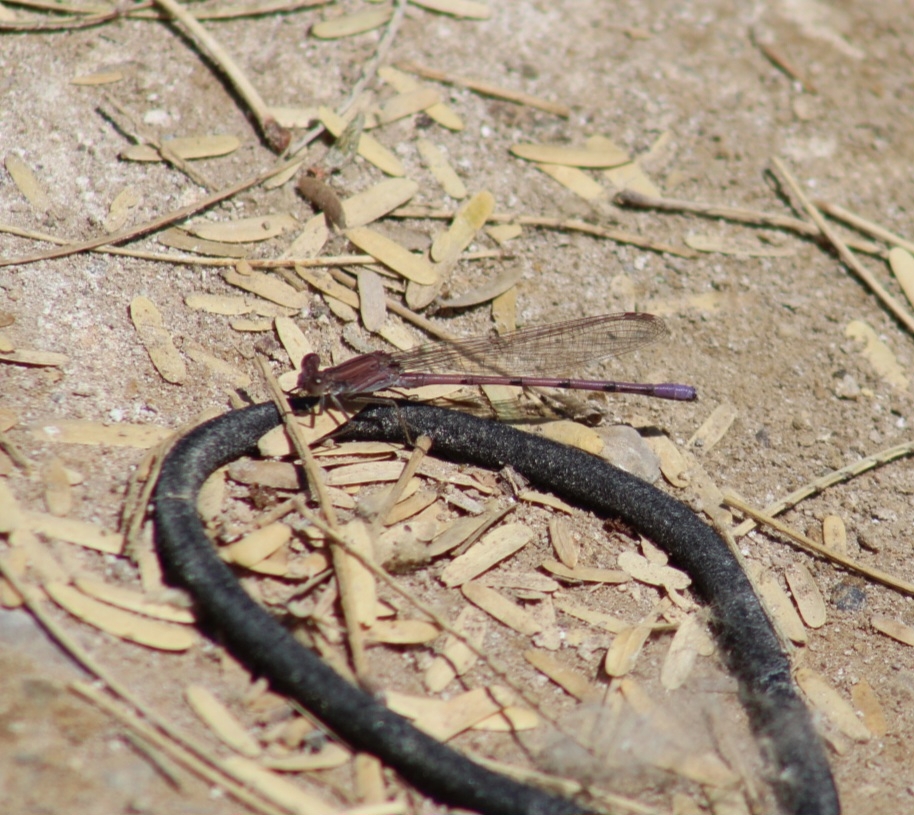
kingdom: Animalia
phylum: Arthropoda
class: Insecta
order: Odonata
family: Coenagrionidae
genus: Argia
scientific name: Argia pallens
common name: Amethyst dancer
